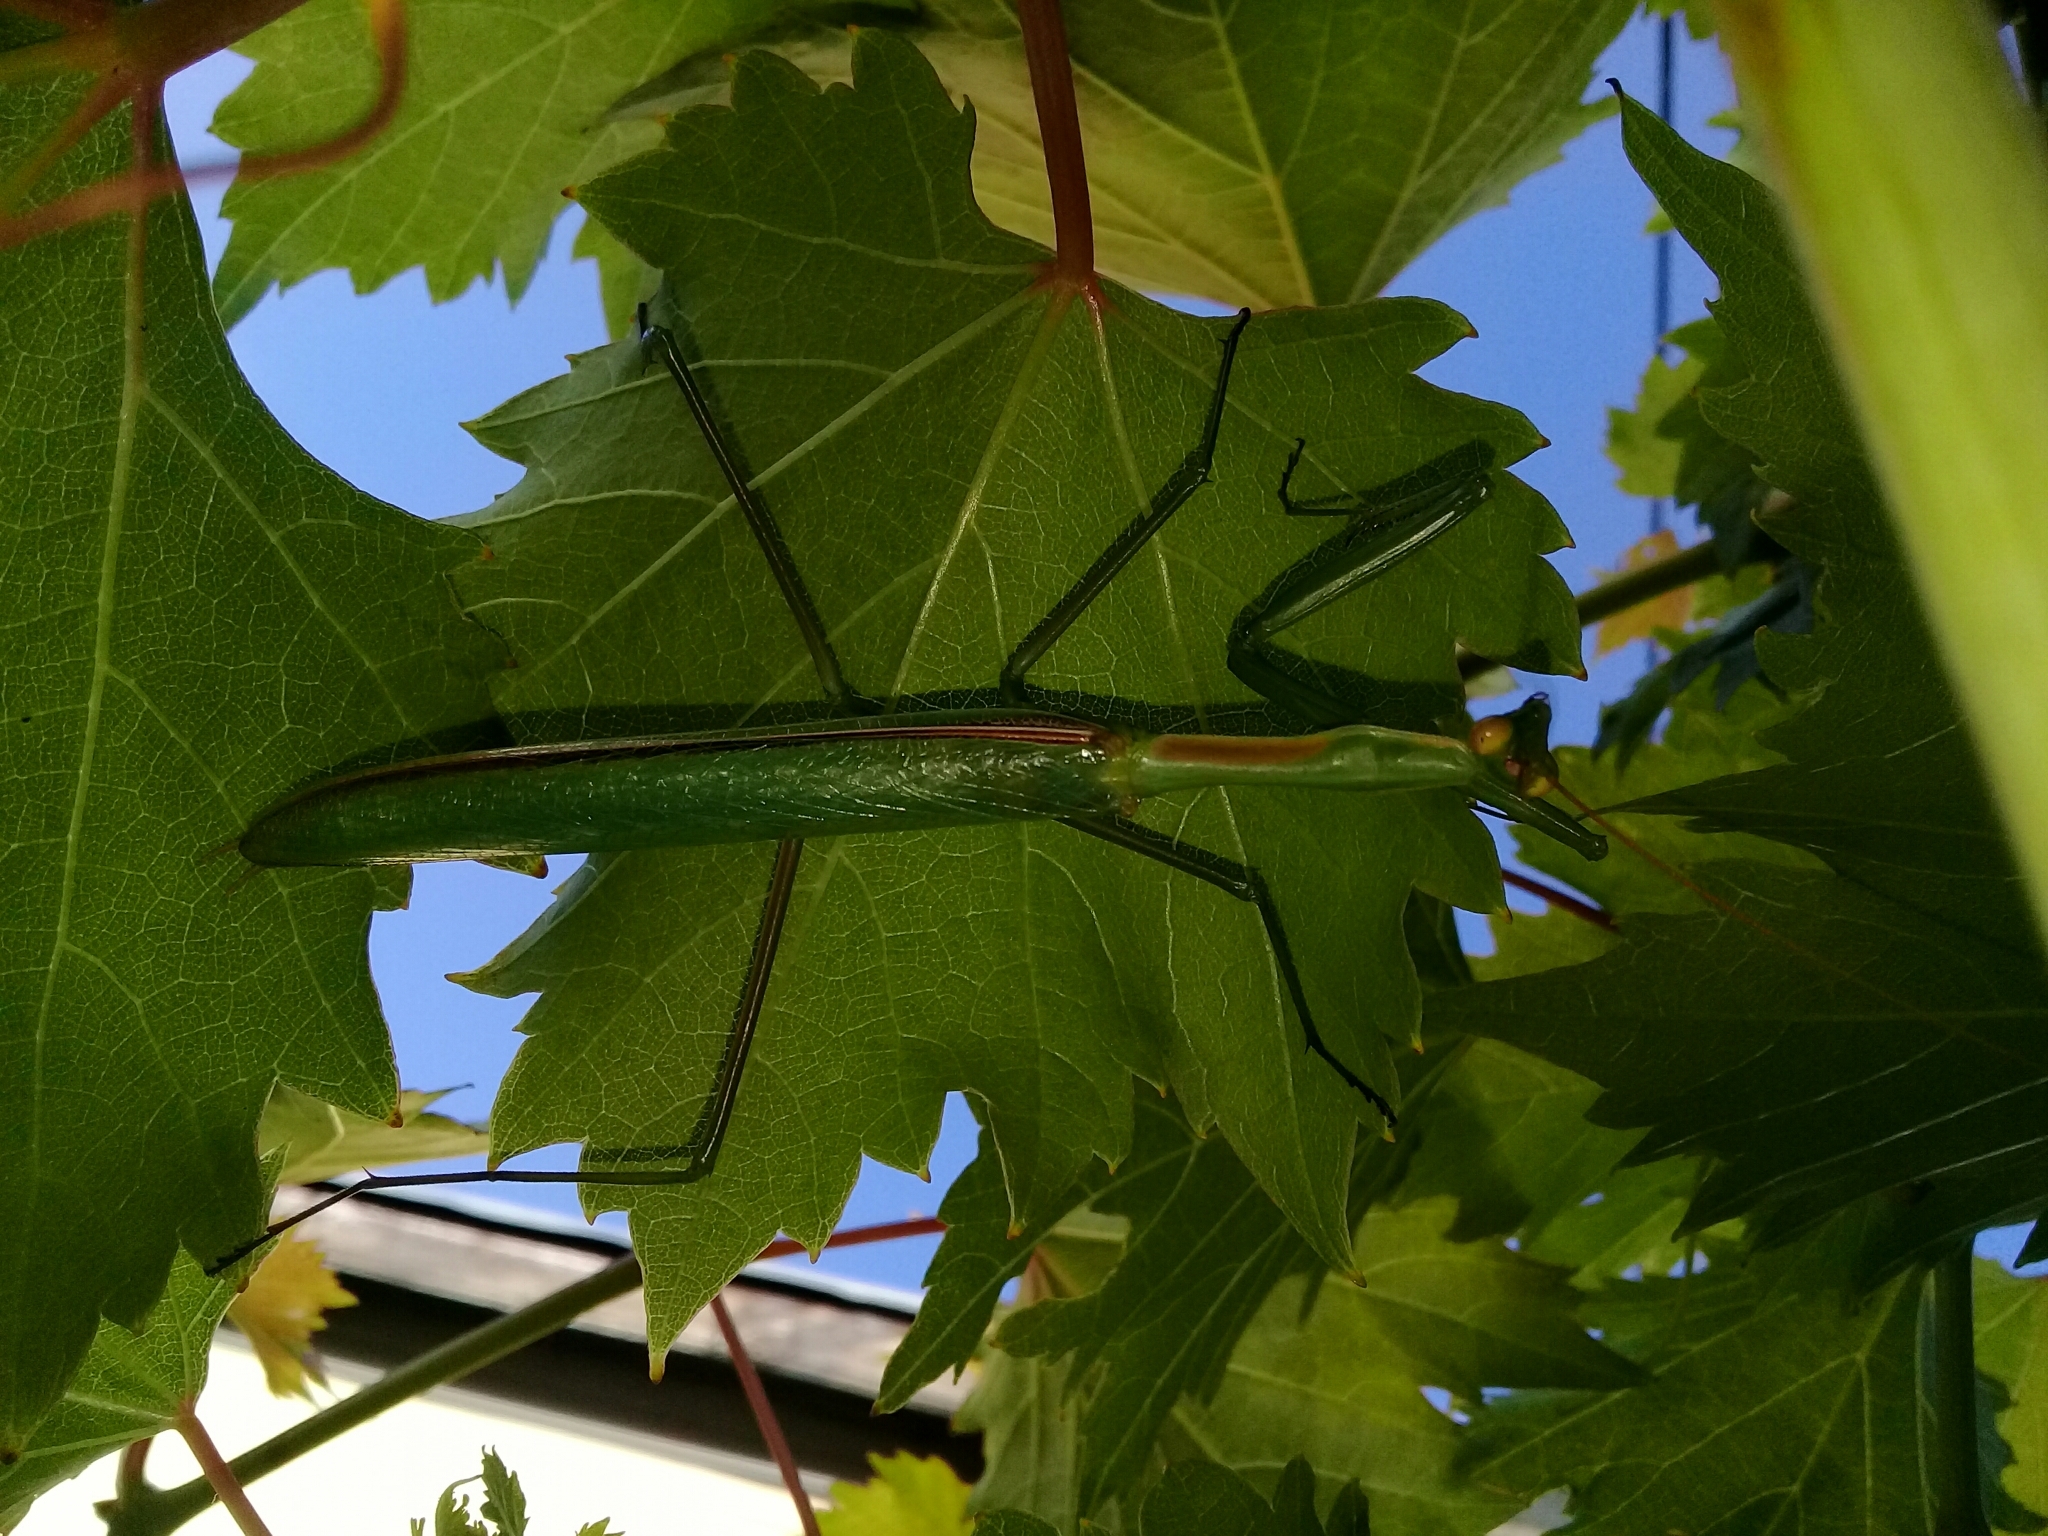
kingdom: Animalia
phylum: Arthropoda
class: Insecta
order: Mantodea
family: Coptopterygidae
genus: Coptopteryx
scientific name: Coptopteryx argentina
